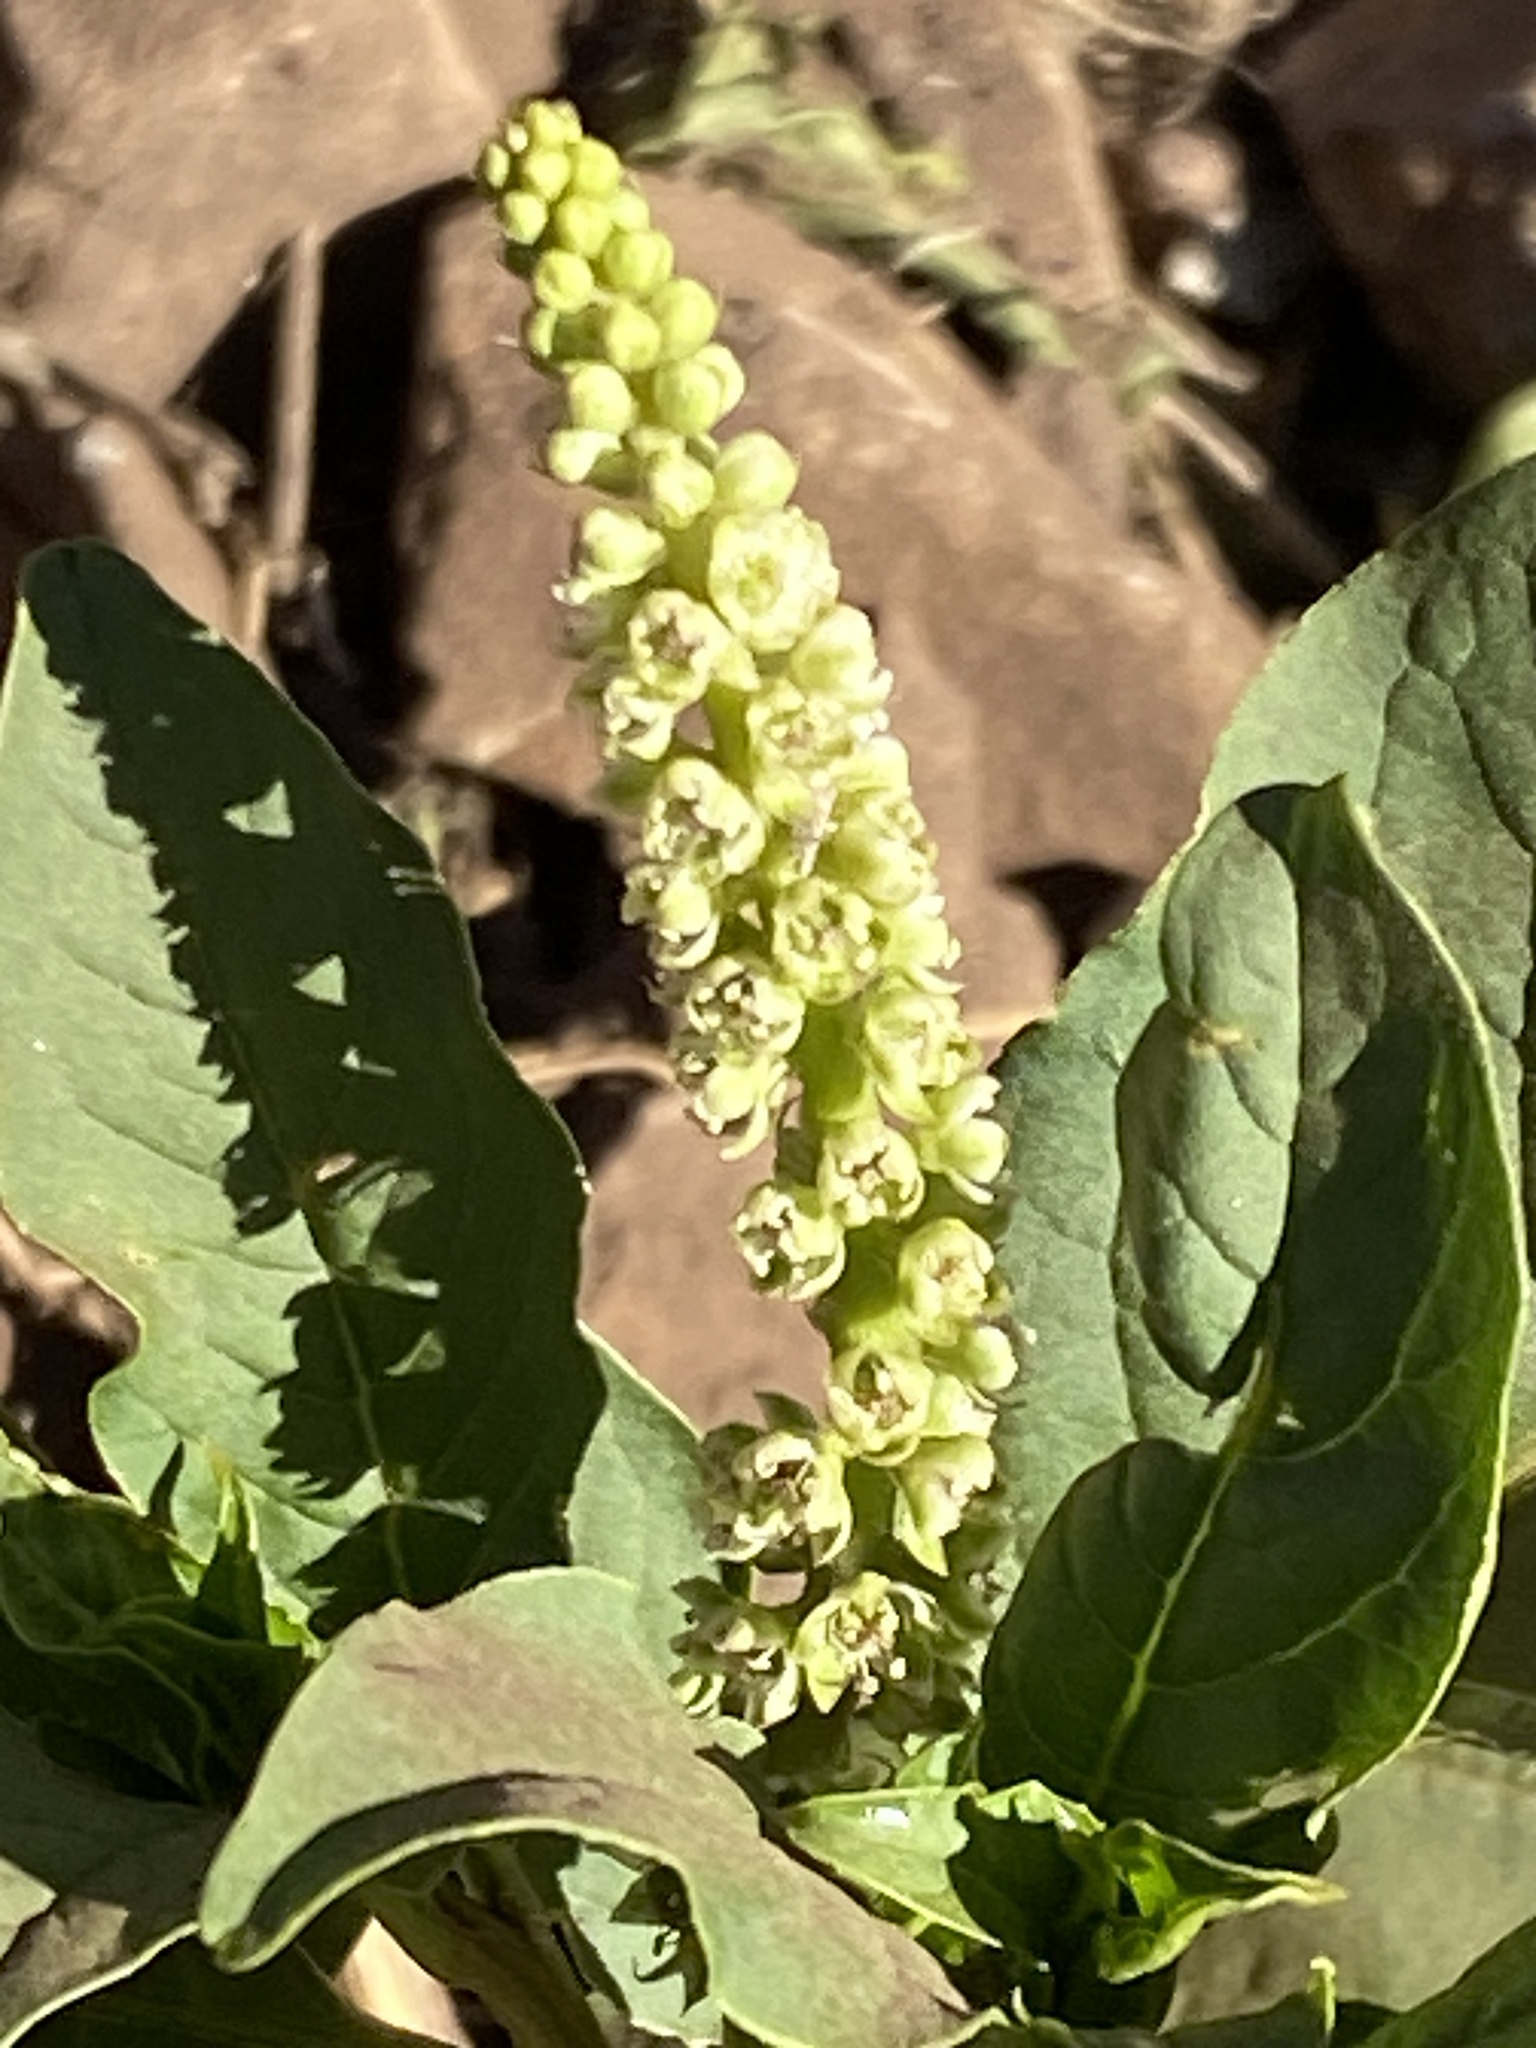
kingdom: Plantae
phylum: Tracheophyta
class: Magnoliopsida
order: Caryophyllales
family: Phytolaccaceae
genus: Phytolacca
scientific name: Phytolacca icosandra
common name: Button pokeweed
